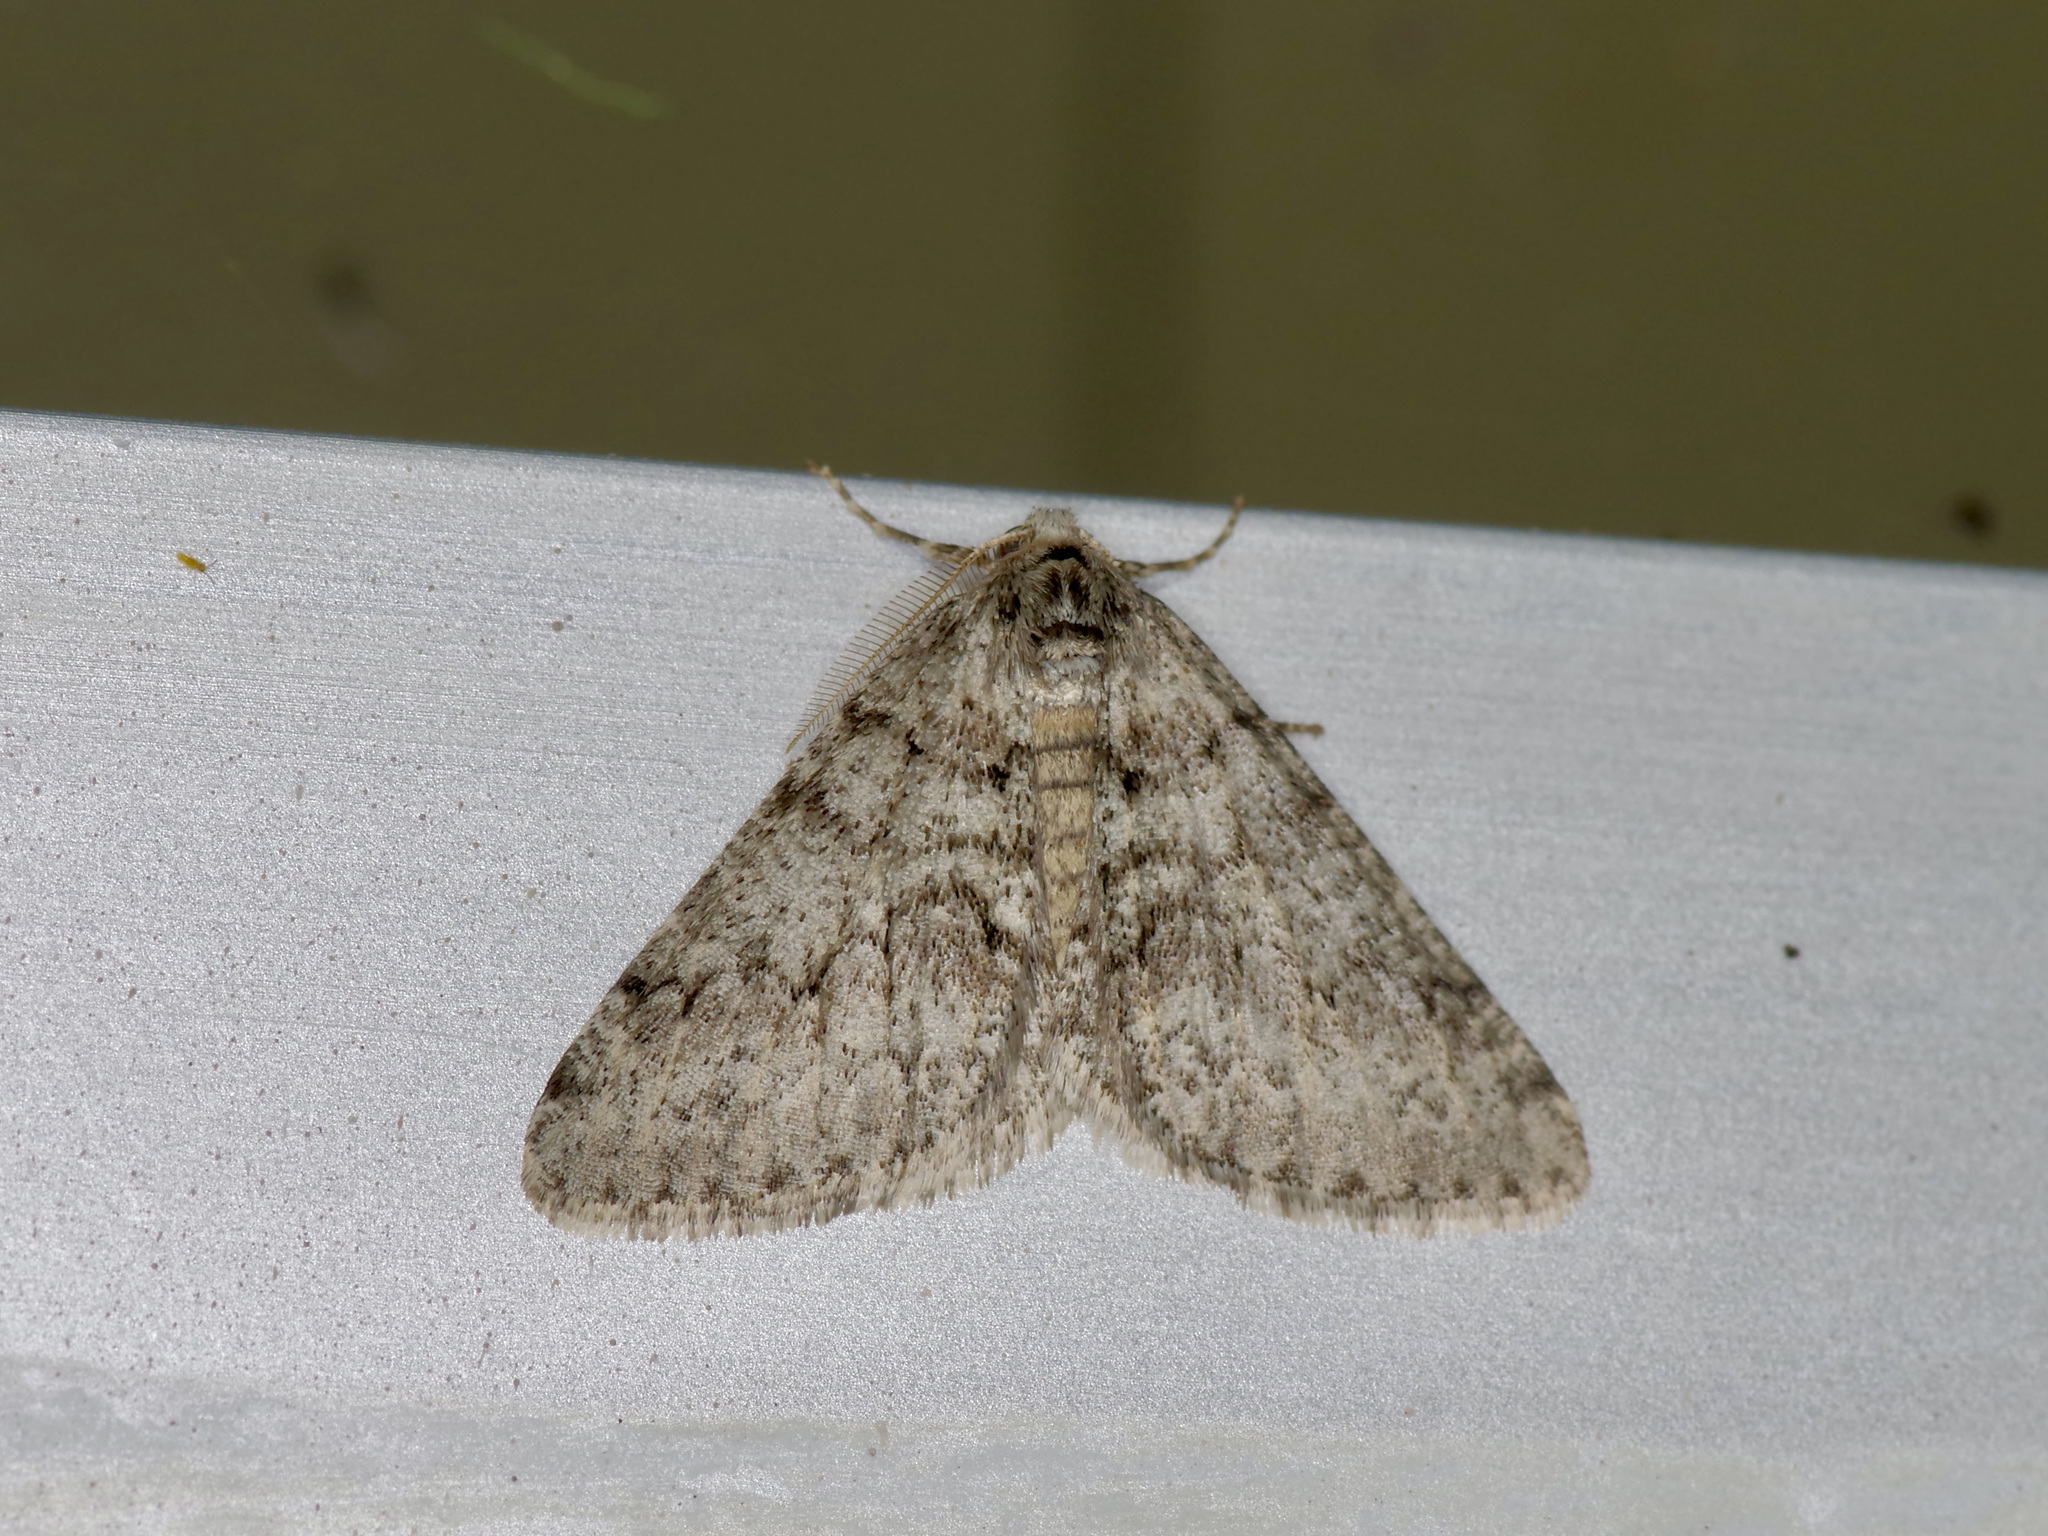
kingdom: Animalia
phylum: Arthropoda
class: Insecta
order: Lepidoptera
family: Geometridae
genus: Phigalia
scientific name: Phigalia strigataria
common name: Small phigalia
